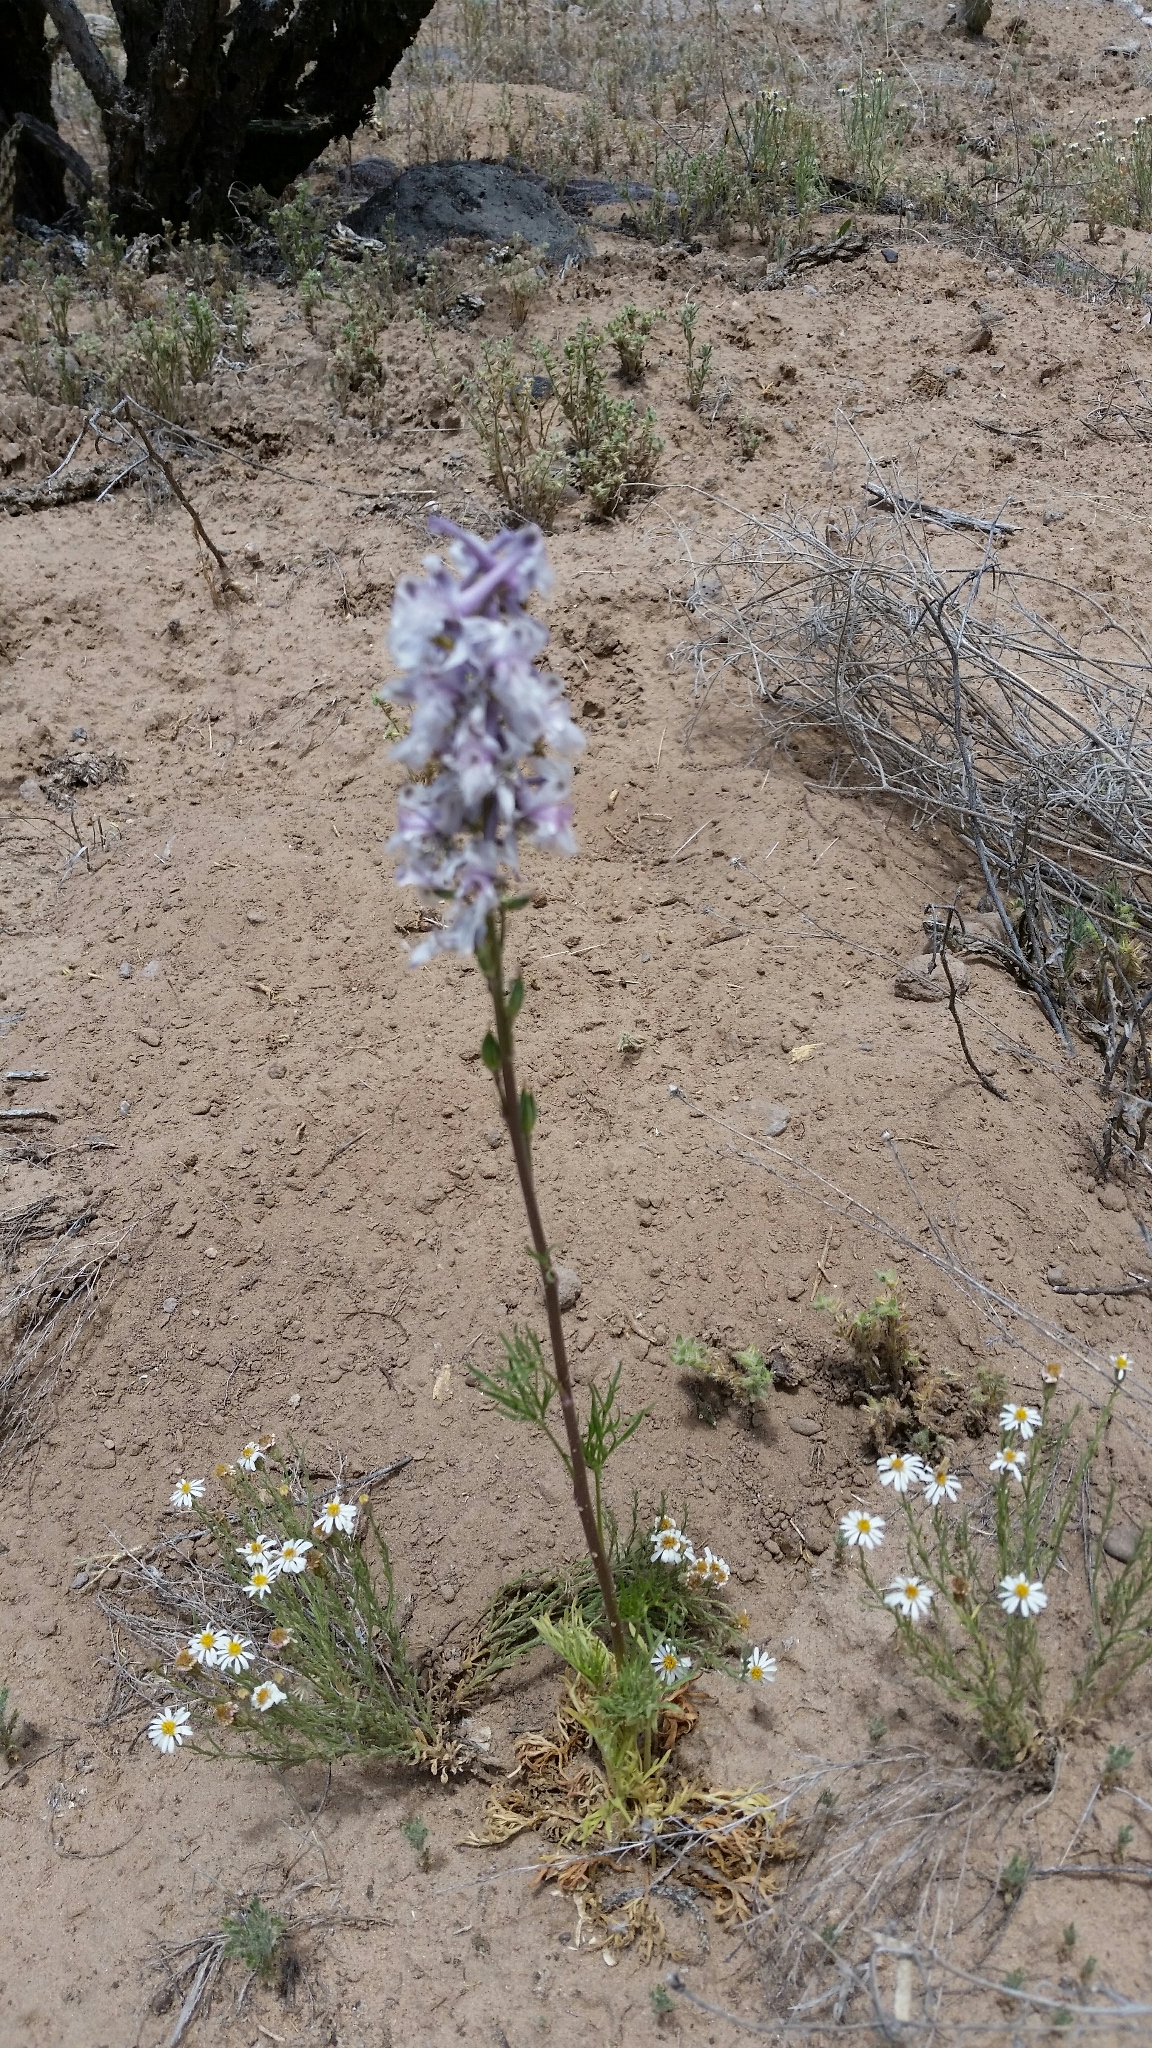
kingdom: Plantae
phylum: Tracheophyta
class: Magnoliopsida
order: Ranunculales
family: Ranunculaceae
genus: Delphinium
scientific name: Delphinium wootonii
